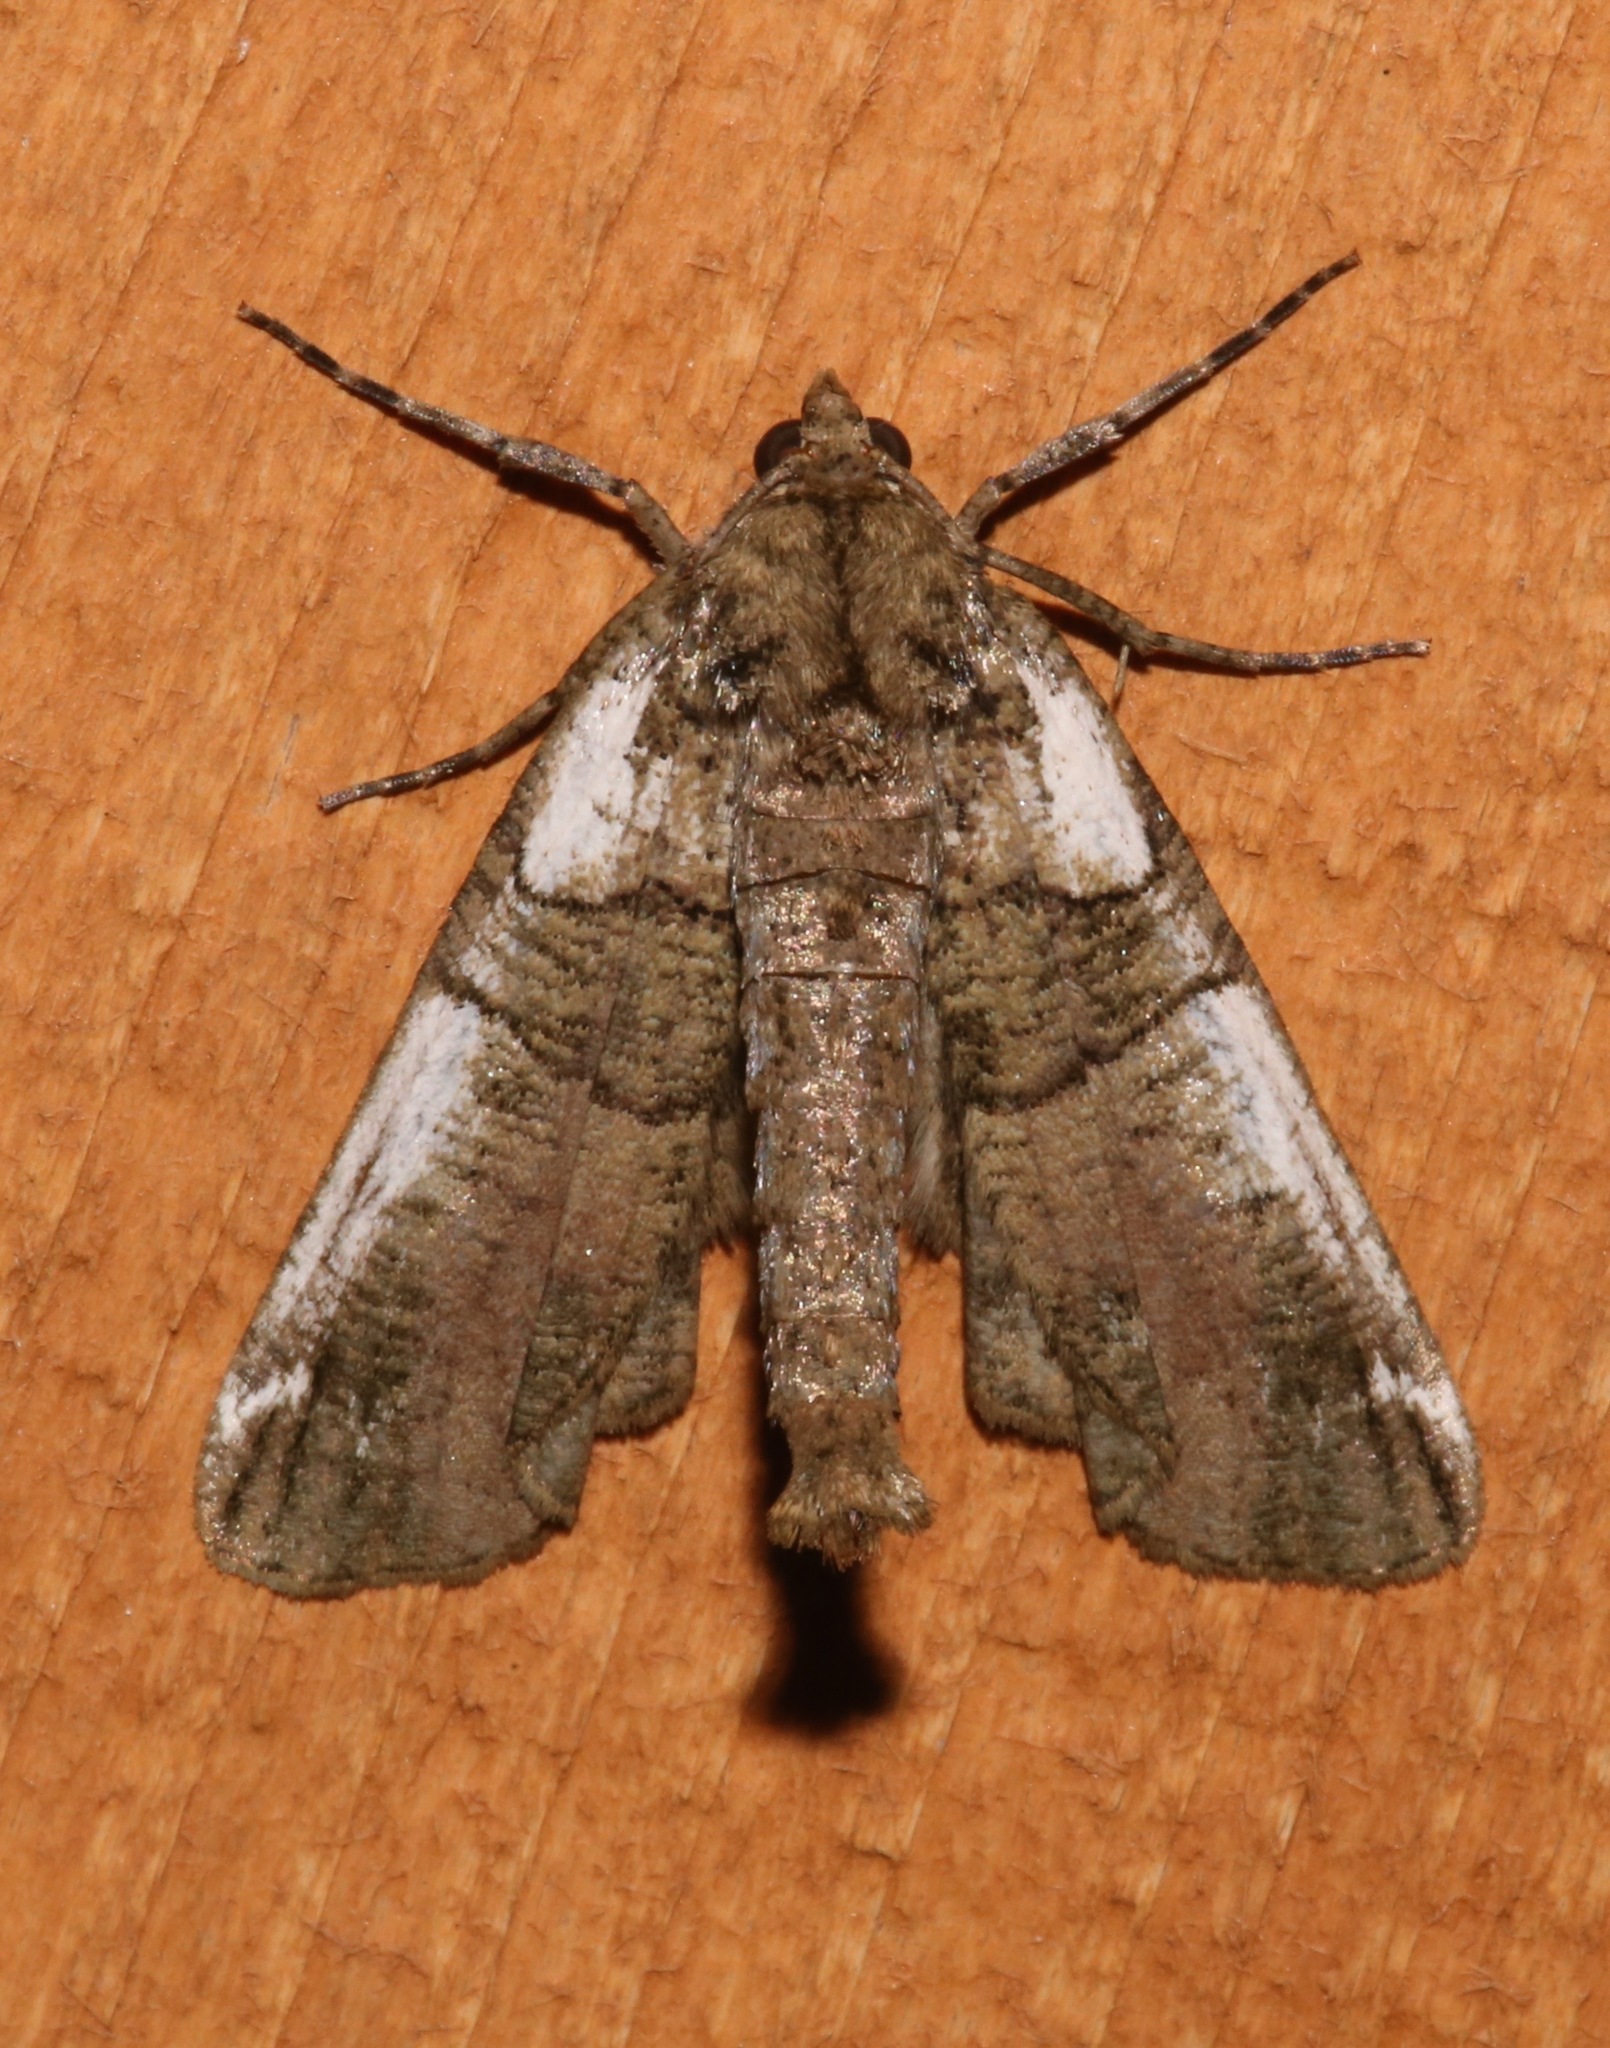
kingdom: Animalia
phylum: Arthropoda
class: Insecta
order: Lepidoptera
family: Geometridae
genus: Ceratonyx
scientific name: Ceratonyx satanaria
